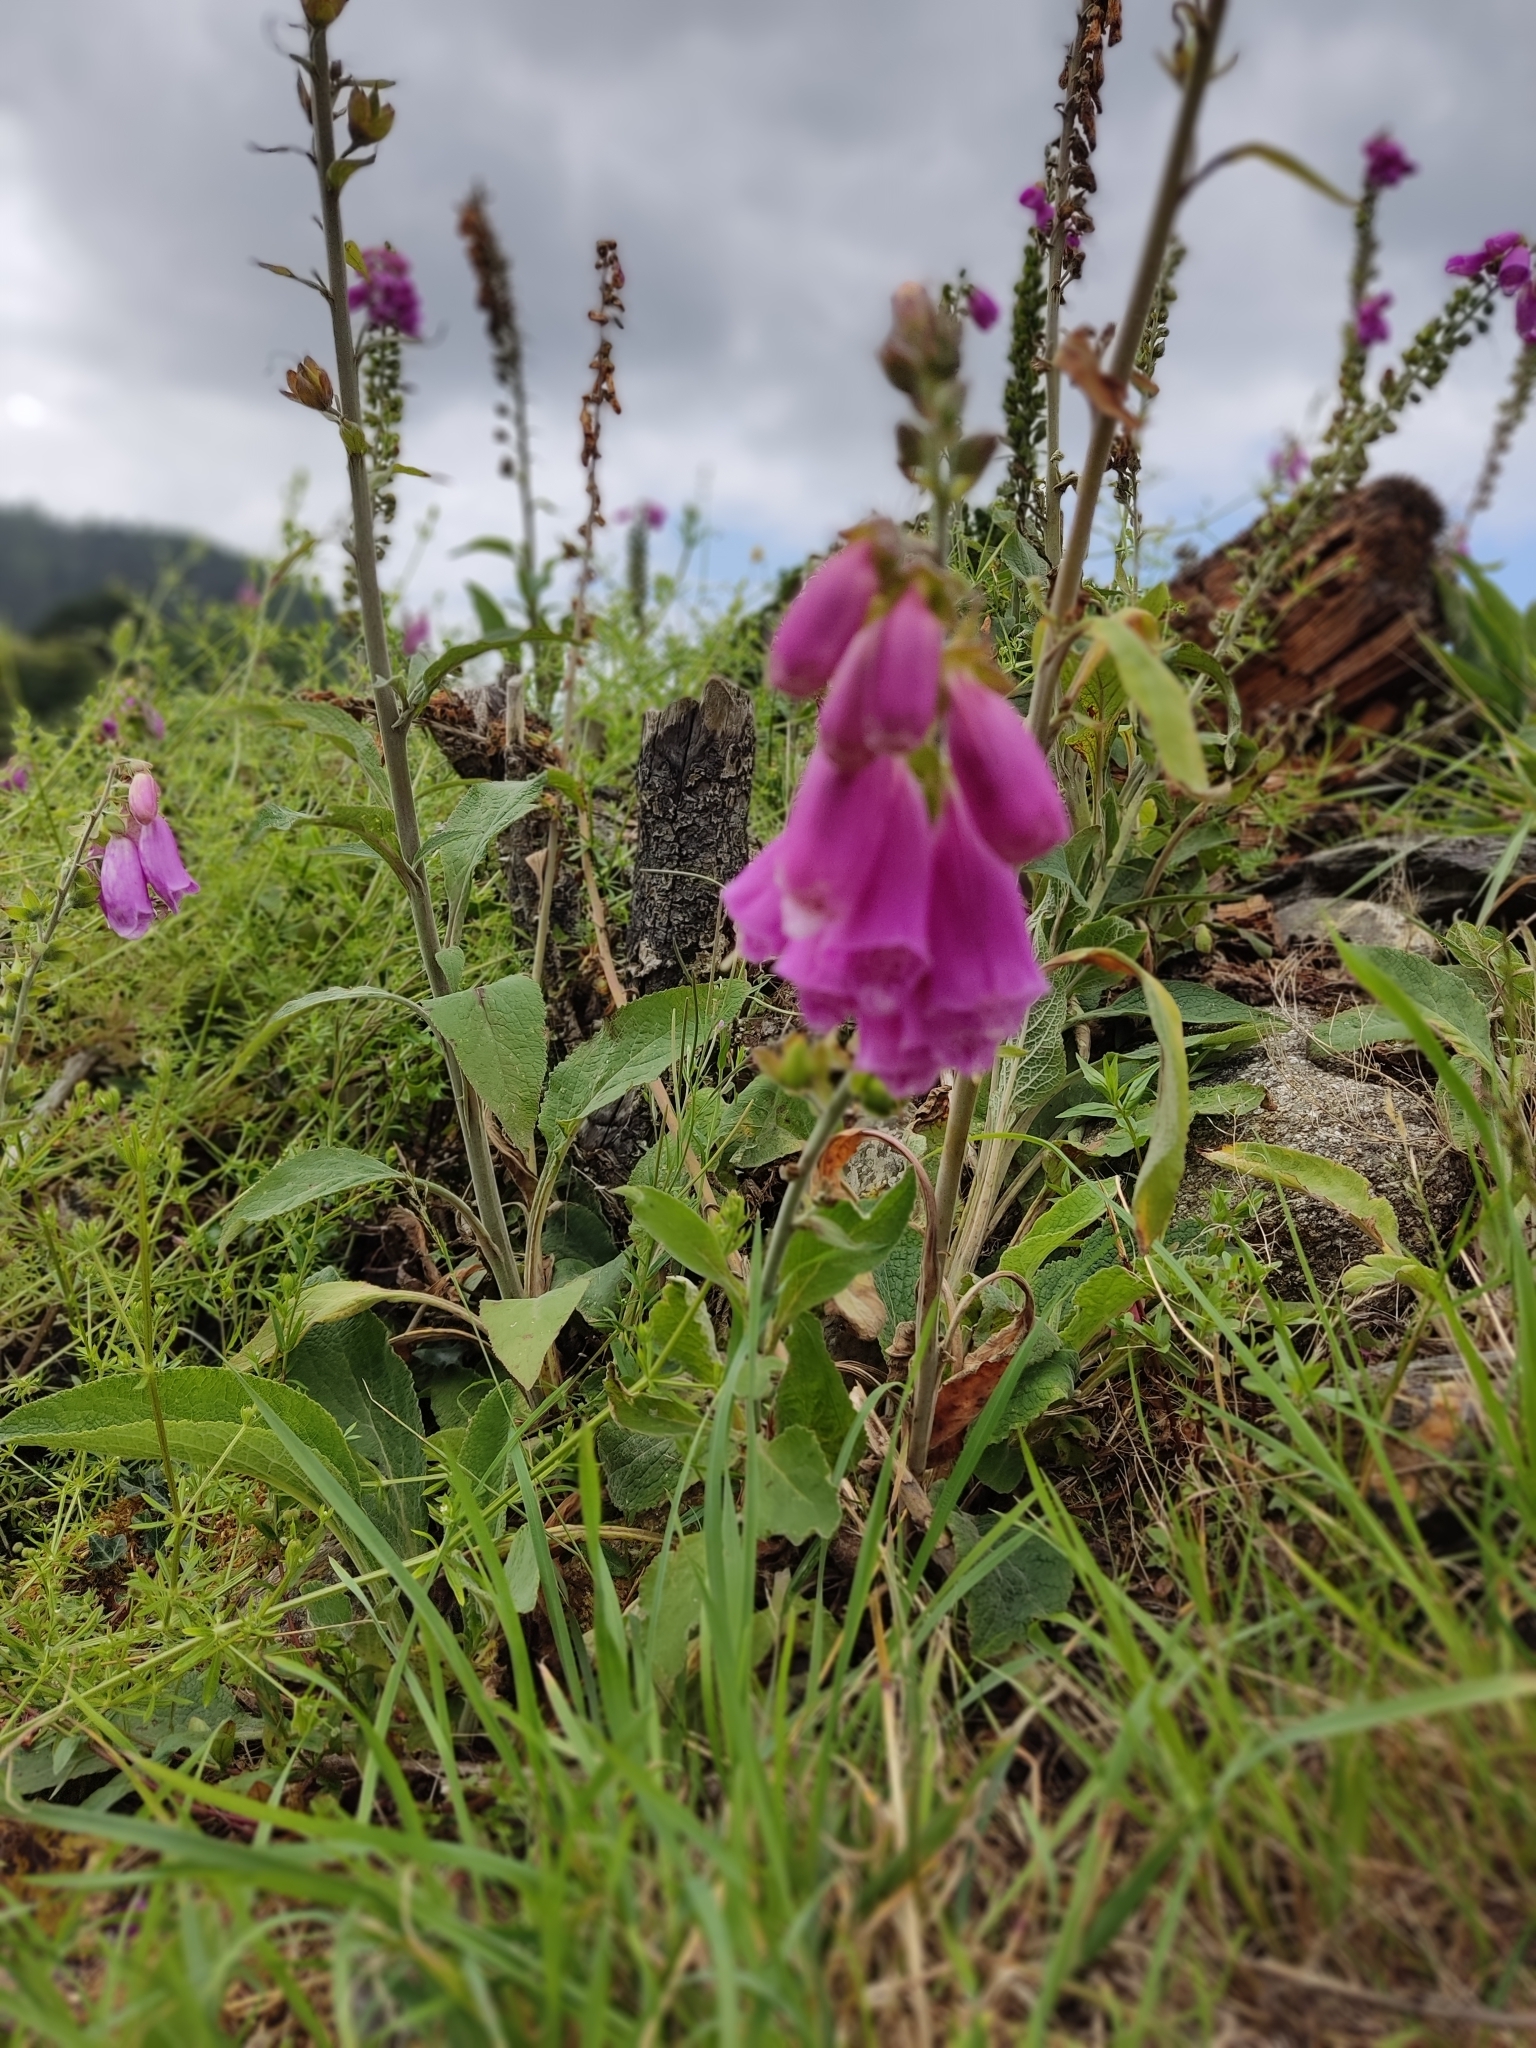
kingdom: Plantae
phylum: Tracheophyta
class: Magnoliopsida
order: Lamiales
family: Plantaginaceae
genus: Digitalis
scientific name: Digitalis purpurea
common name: Foxglove
